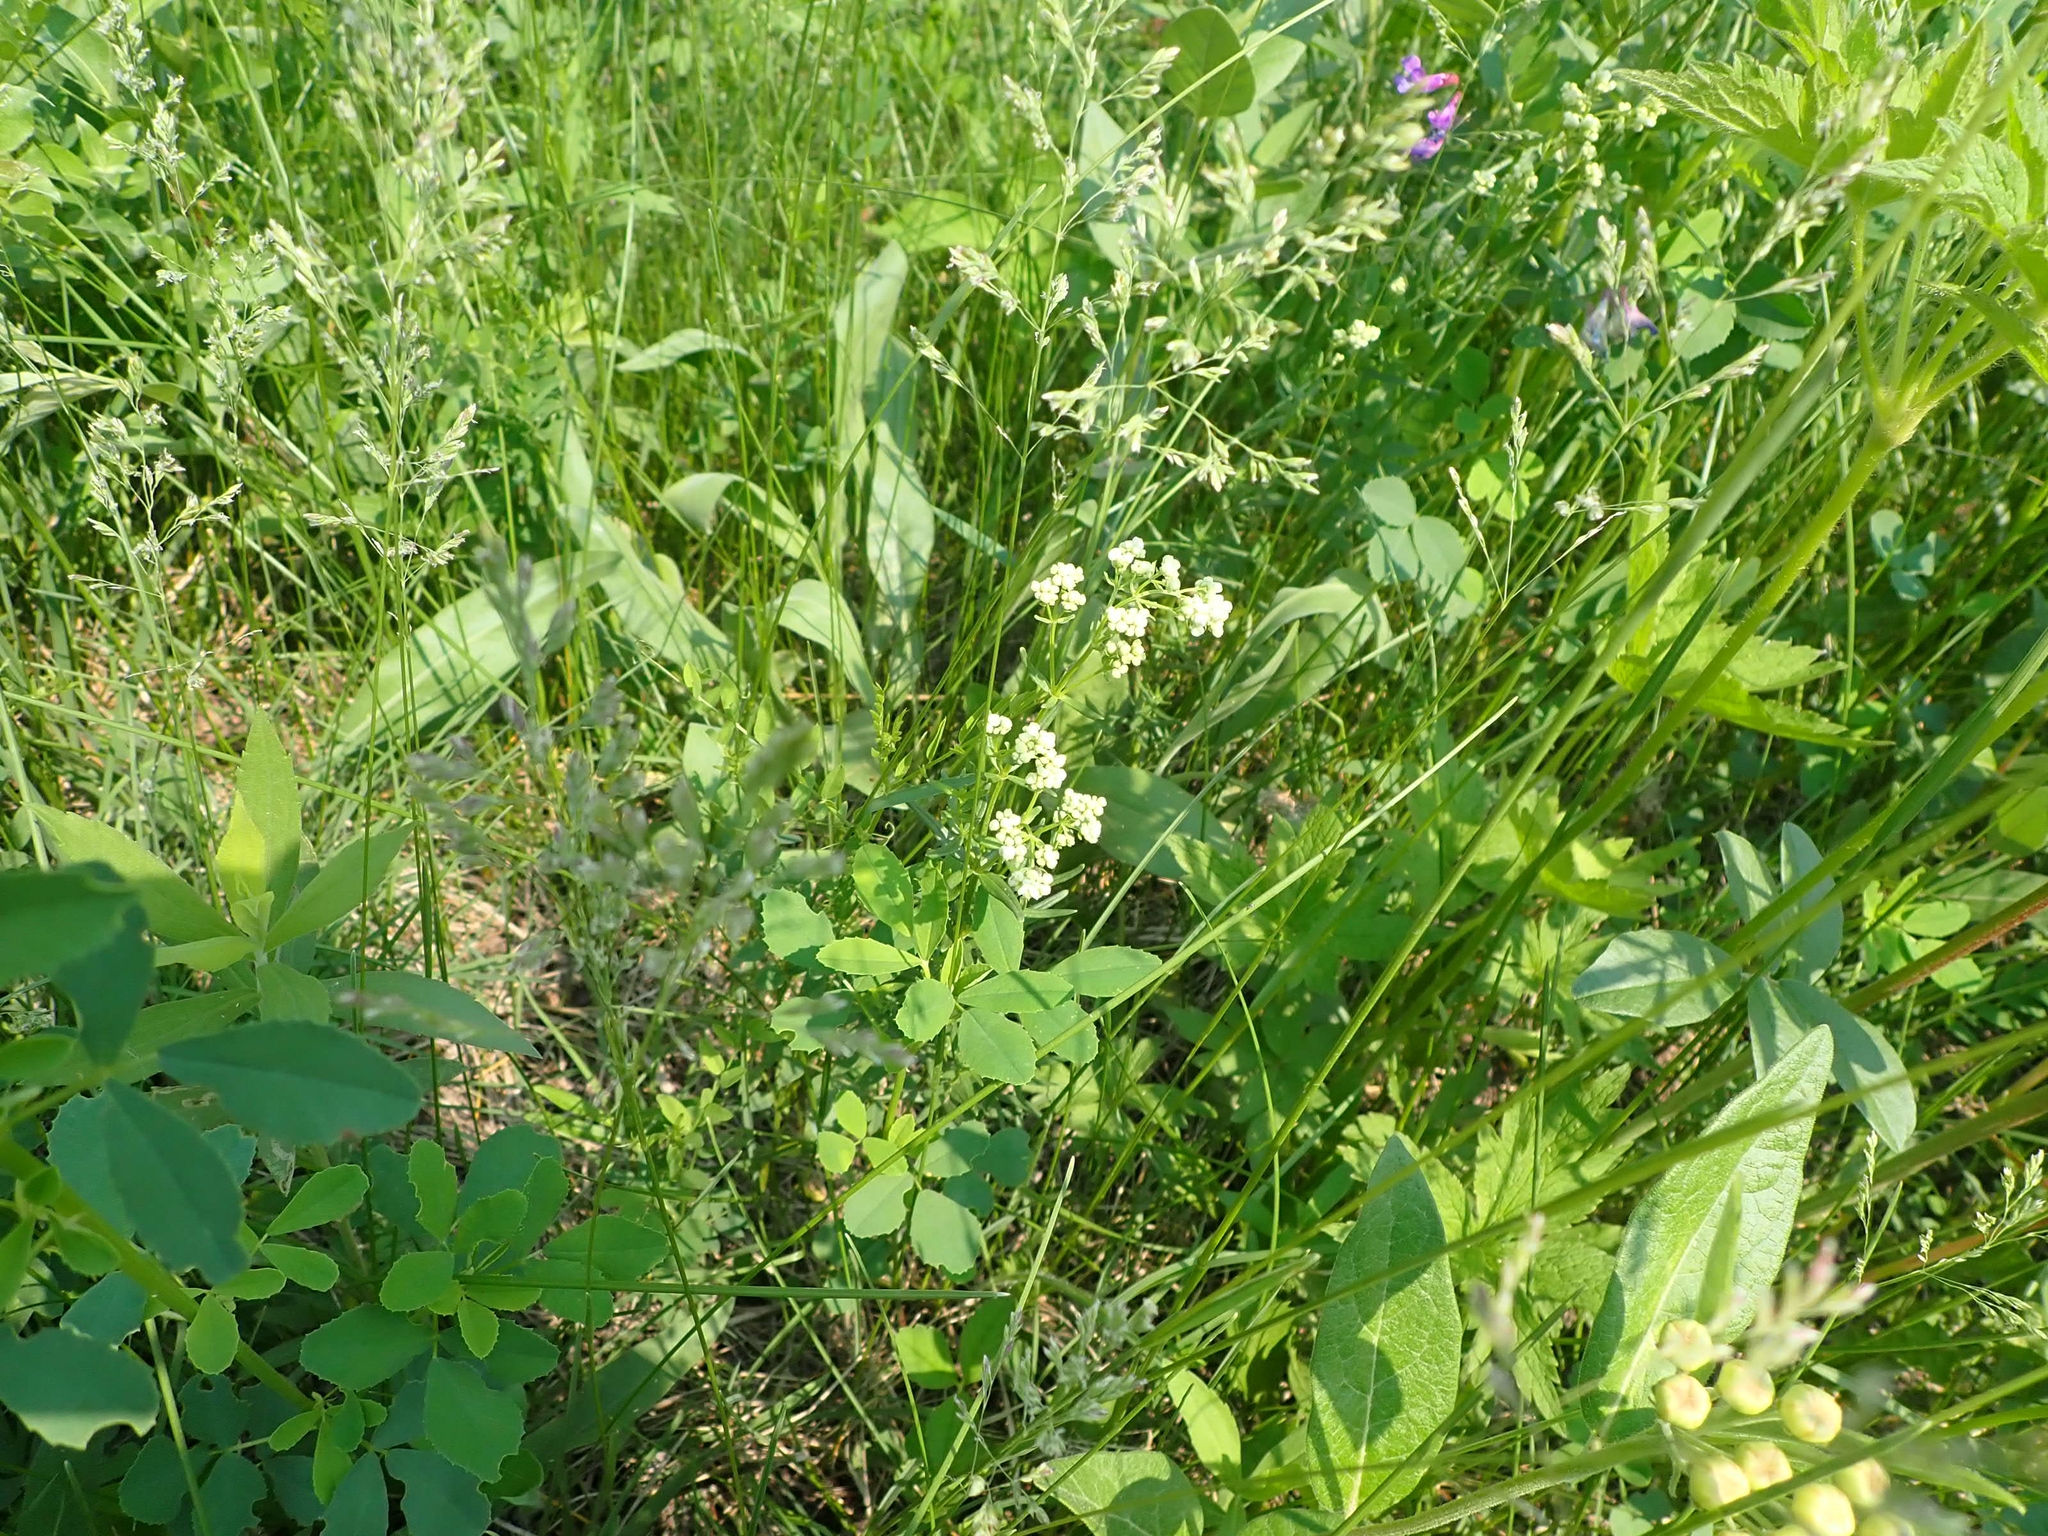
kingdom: Plantae
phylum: Tracheophyta
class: Magnoliopsida
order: Gentianales
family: Rubiaceae
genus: Galium
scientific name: Galium boreale
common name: Northern bedstraw
